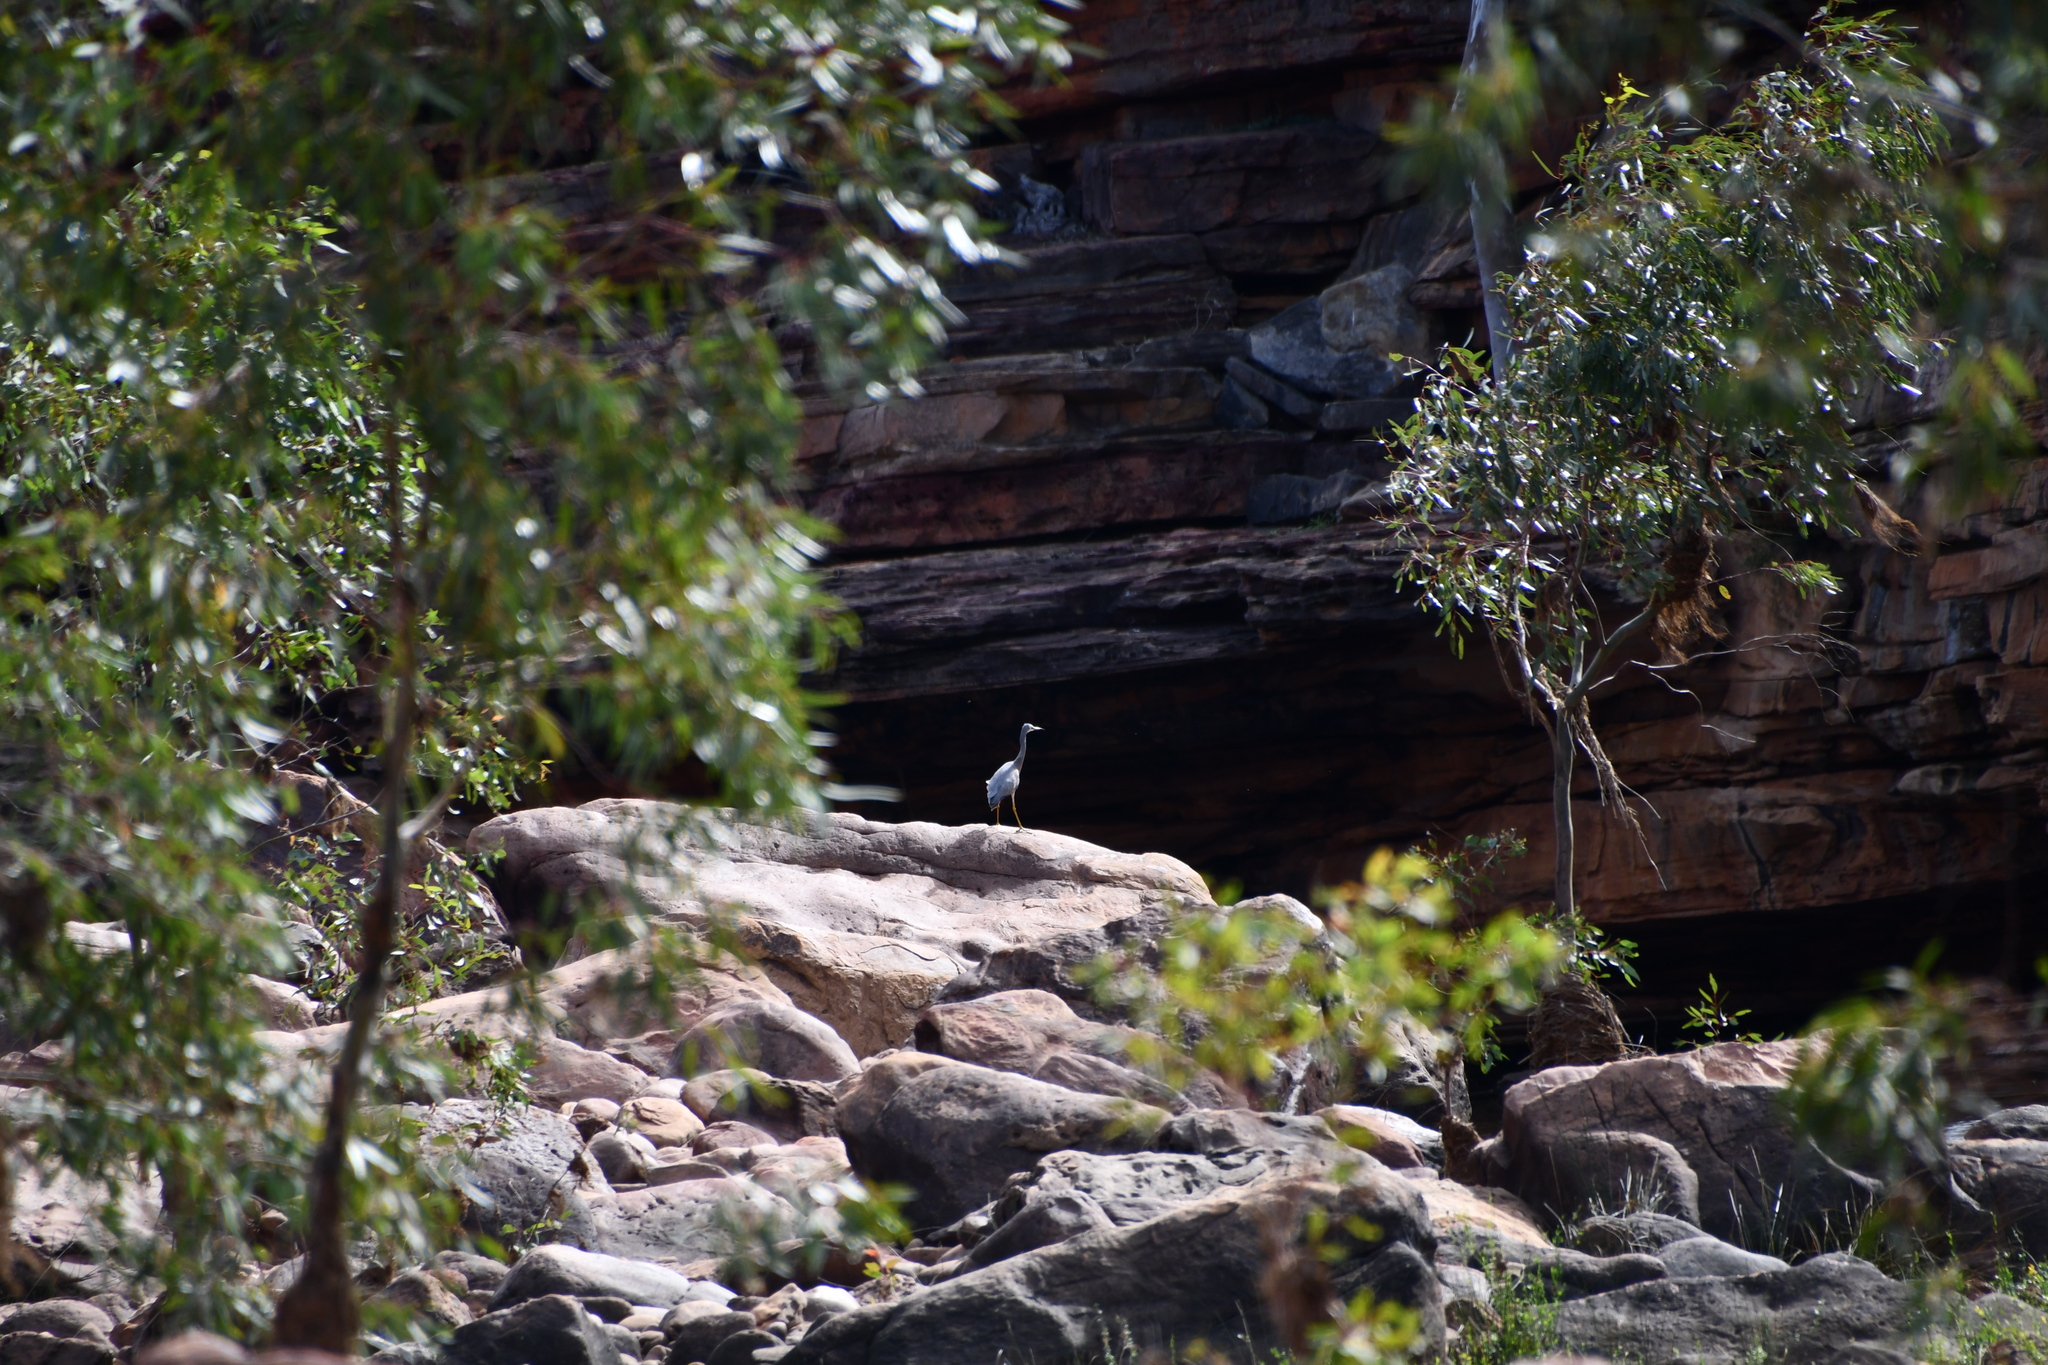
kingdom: Animalia
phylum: Chordata
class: Aves
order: Pelecaniformes
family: Ardeidae
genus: Egretta
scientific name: Egretta novaehollandiae
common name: White-faced heron
